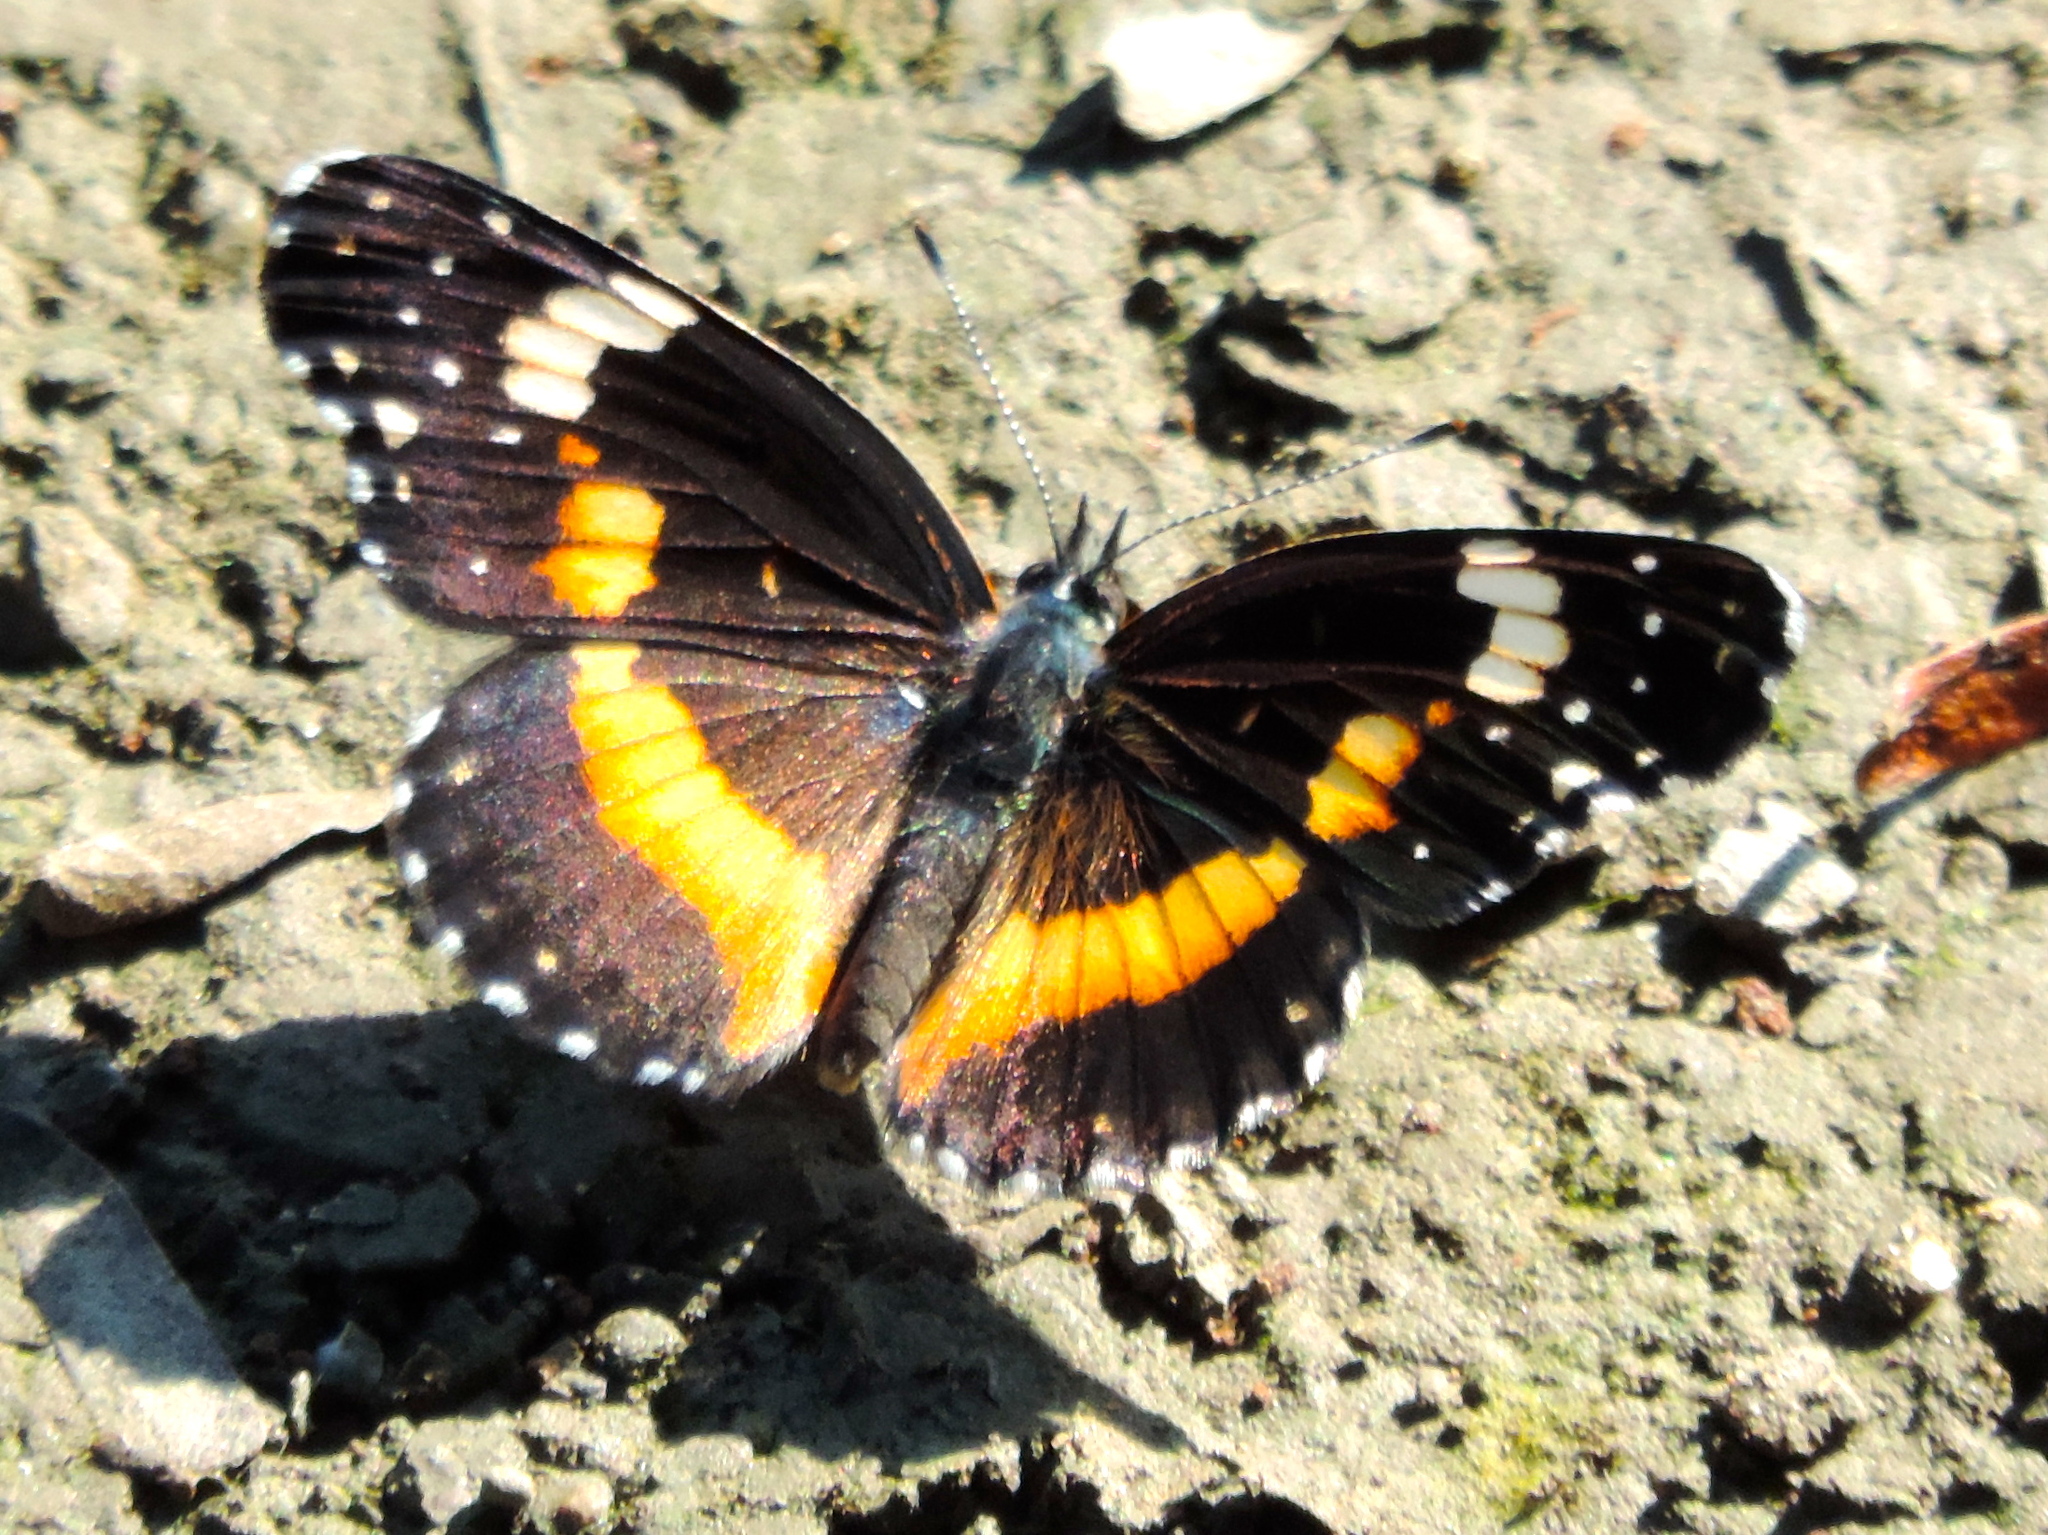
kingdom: Animalia
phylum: Arthropoda
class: Insecta
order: Lepidoptera
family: Nymphalidae
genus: Chlosyne
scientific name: Chlosyne lacinia
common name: Bordered patch
